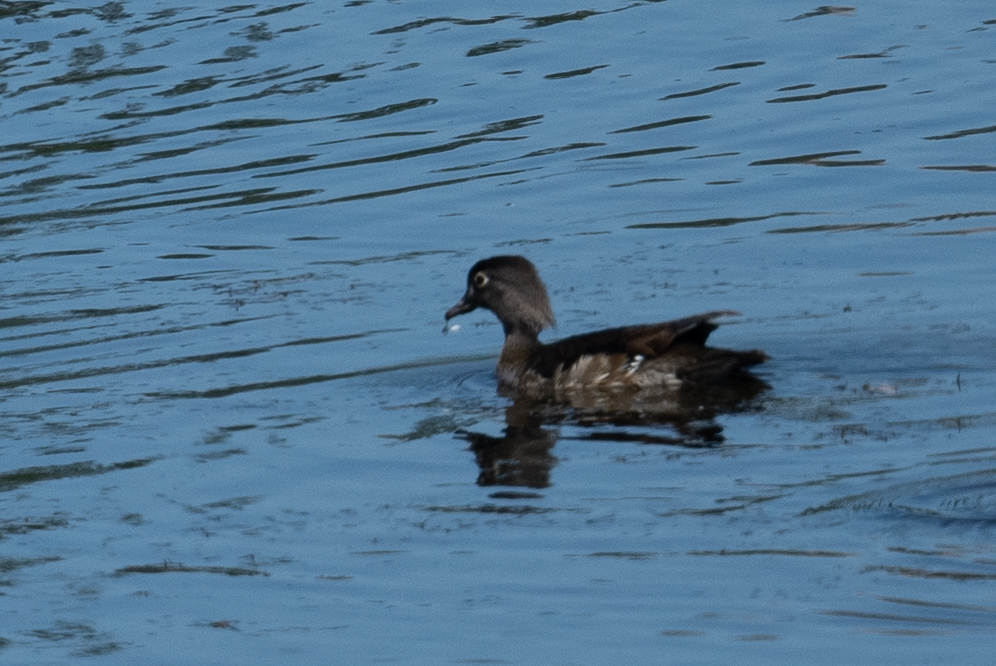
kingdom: Animalia
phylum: Chordata
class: Aves
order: Anseriformes
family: Anatidae
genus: Aix
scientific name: Aix sponsa
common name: Wood duck
